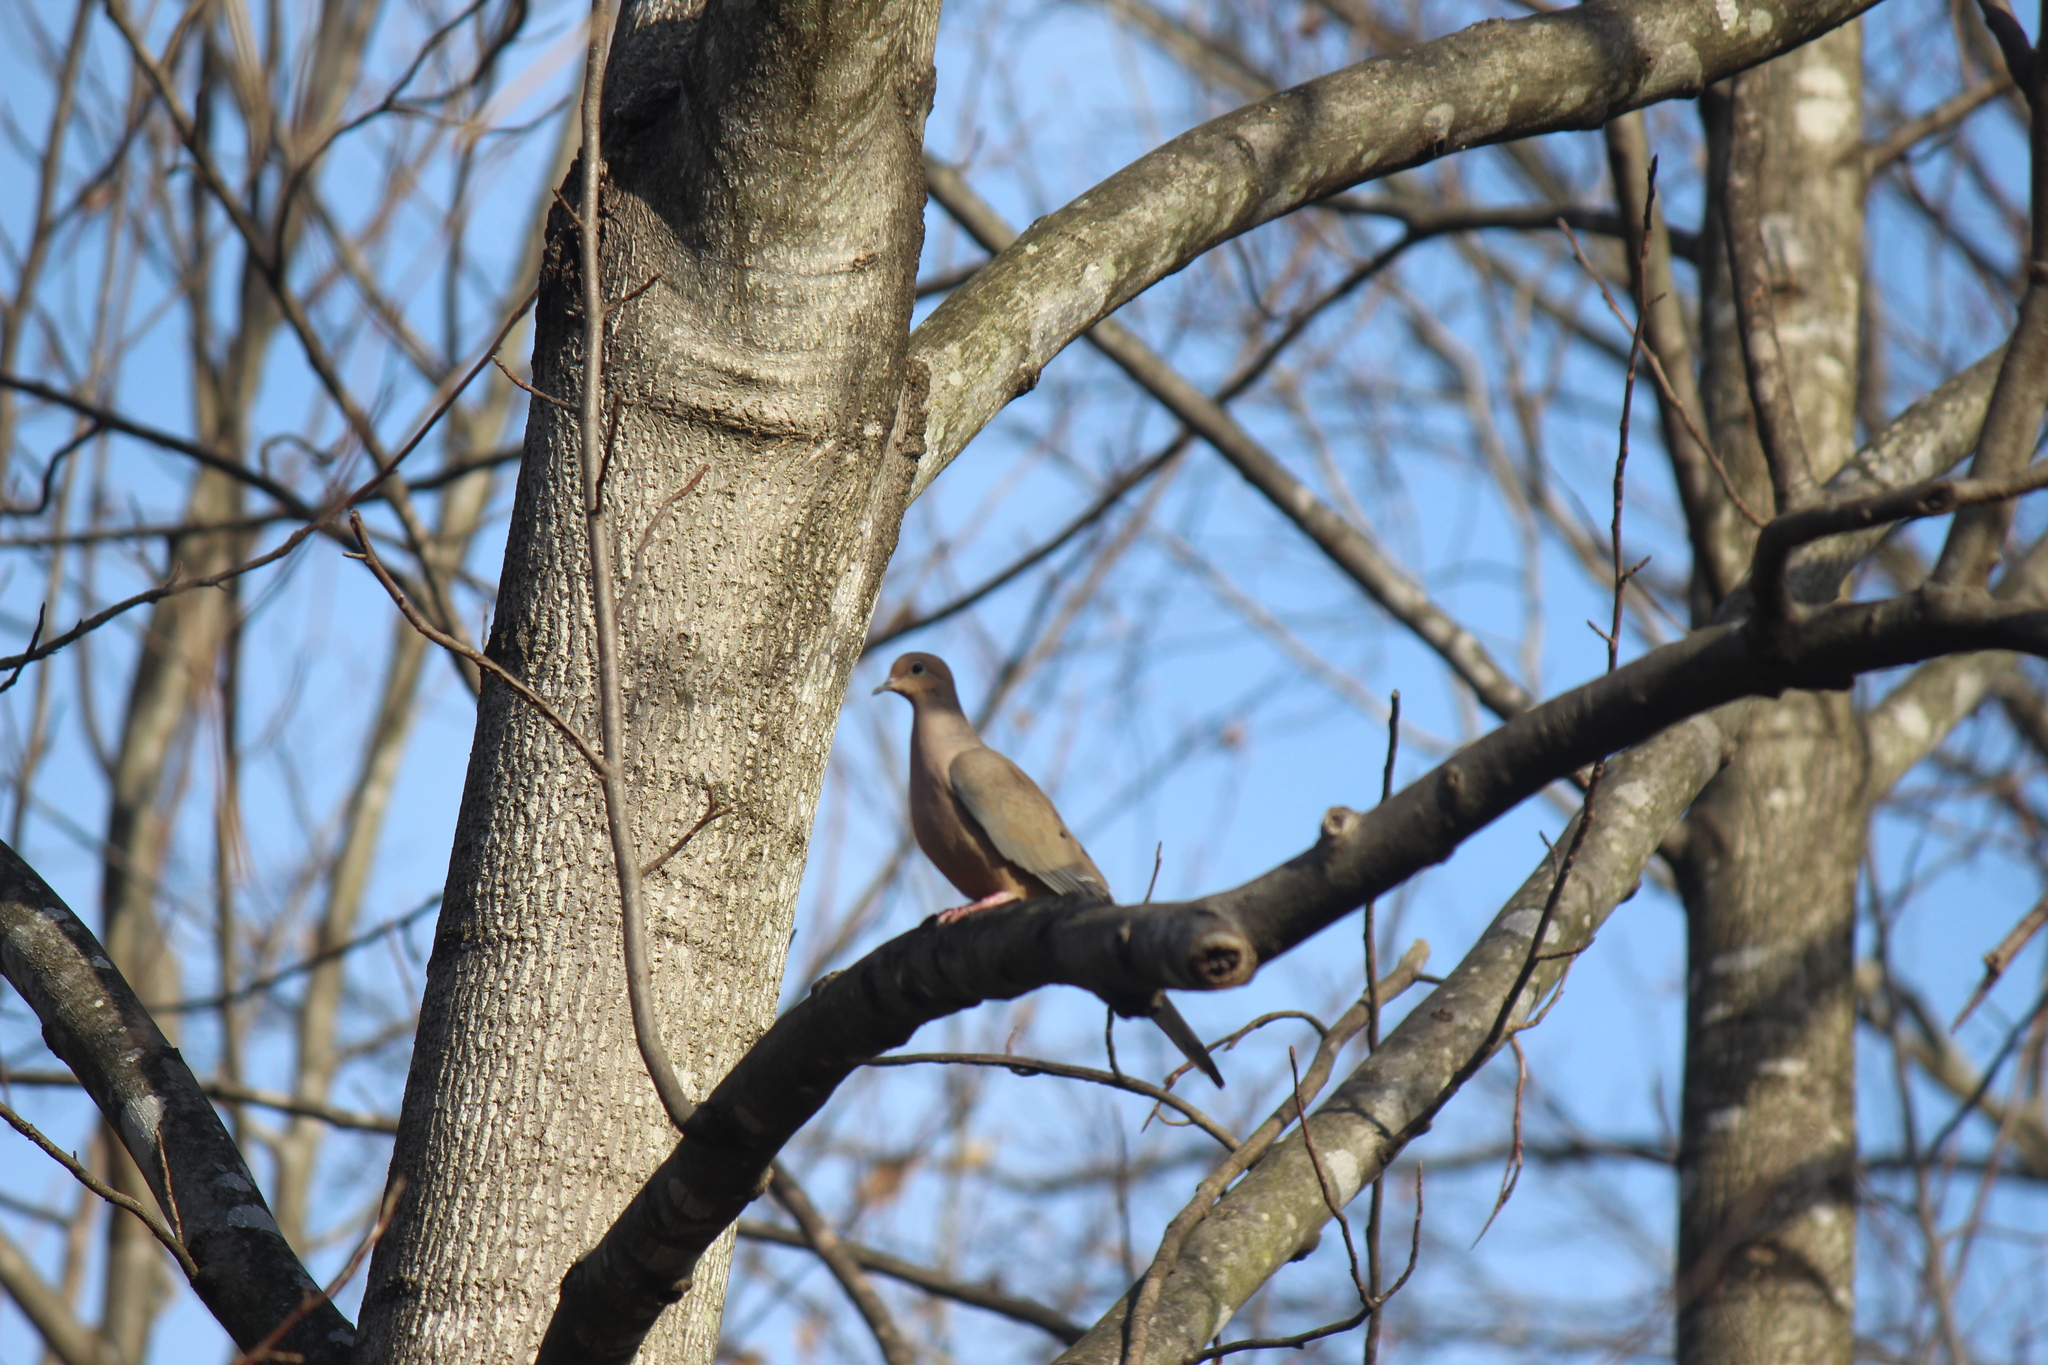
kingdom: Animalia
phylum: Chordata
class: Aves
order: Columbiformes
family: Columbidae
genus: Zenaida
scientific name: Zenaida macroura
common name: Mourning dove
